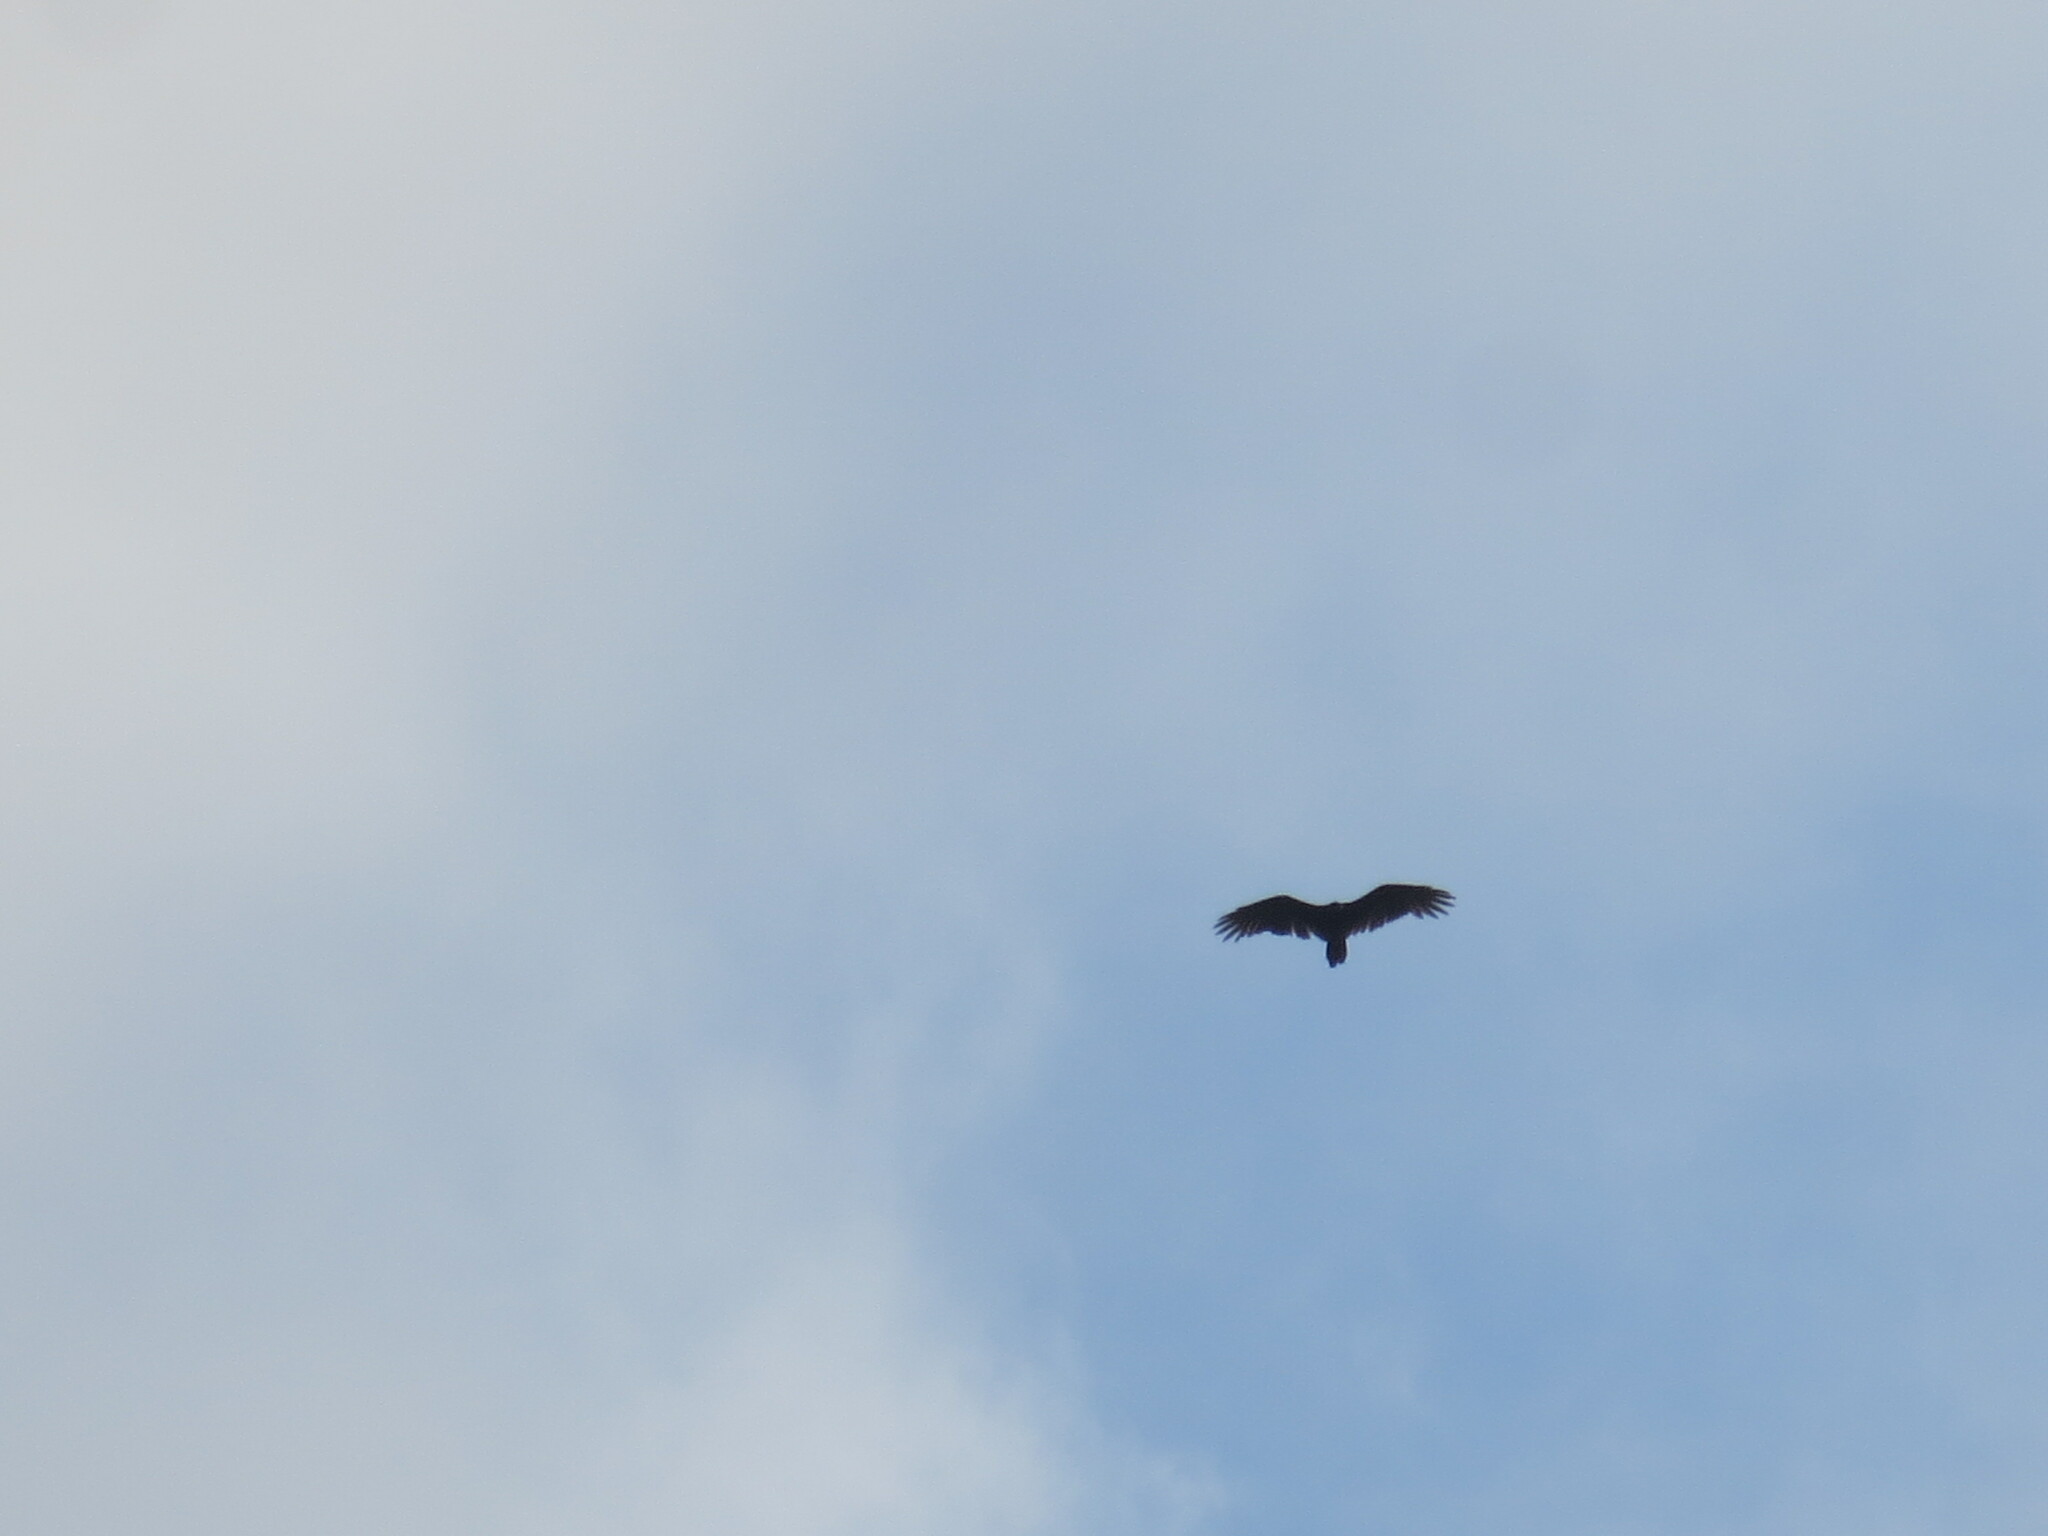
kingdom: Animalia
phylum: Chordata
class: Aves
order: Accipitriformes
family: Cathartidae
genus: Cathartes
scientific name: Cathartes aura
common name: Turkey vulture
